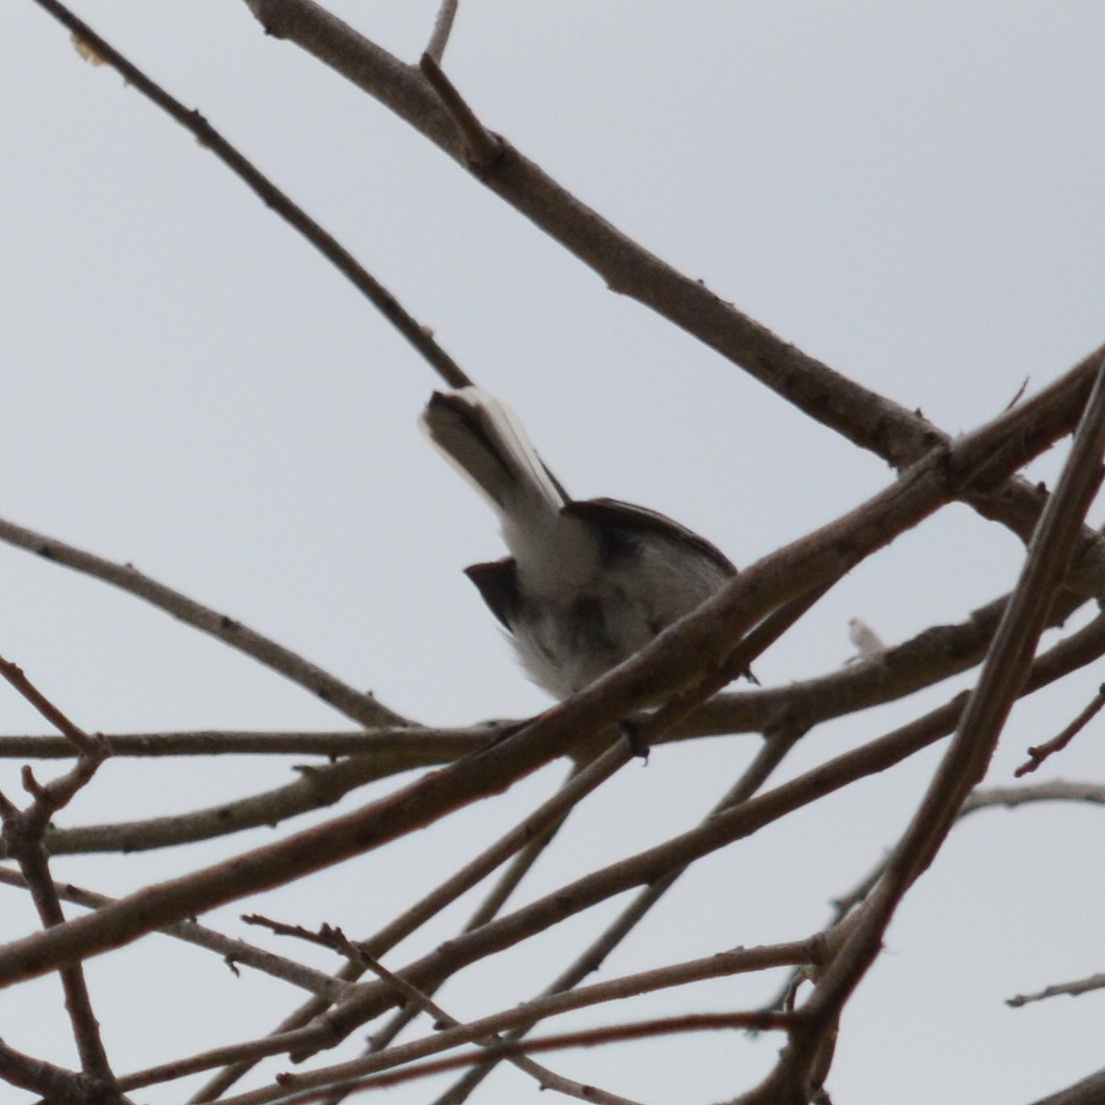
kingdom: Animalia
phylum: Chordata
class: Aves
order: Passeriformes
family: Polioptilidae
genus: Polioptila
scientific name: Polioptila caerulea
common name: Blue-gray gnatcatcher
